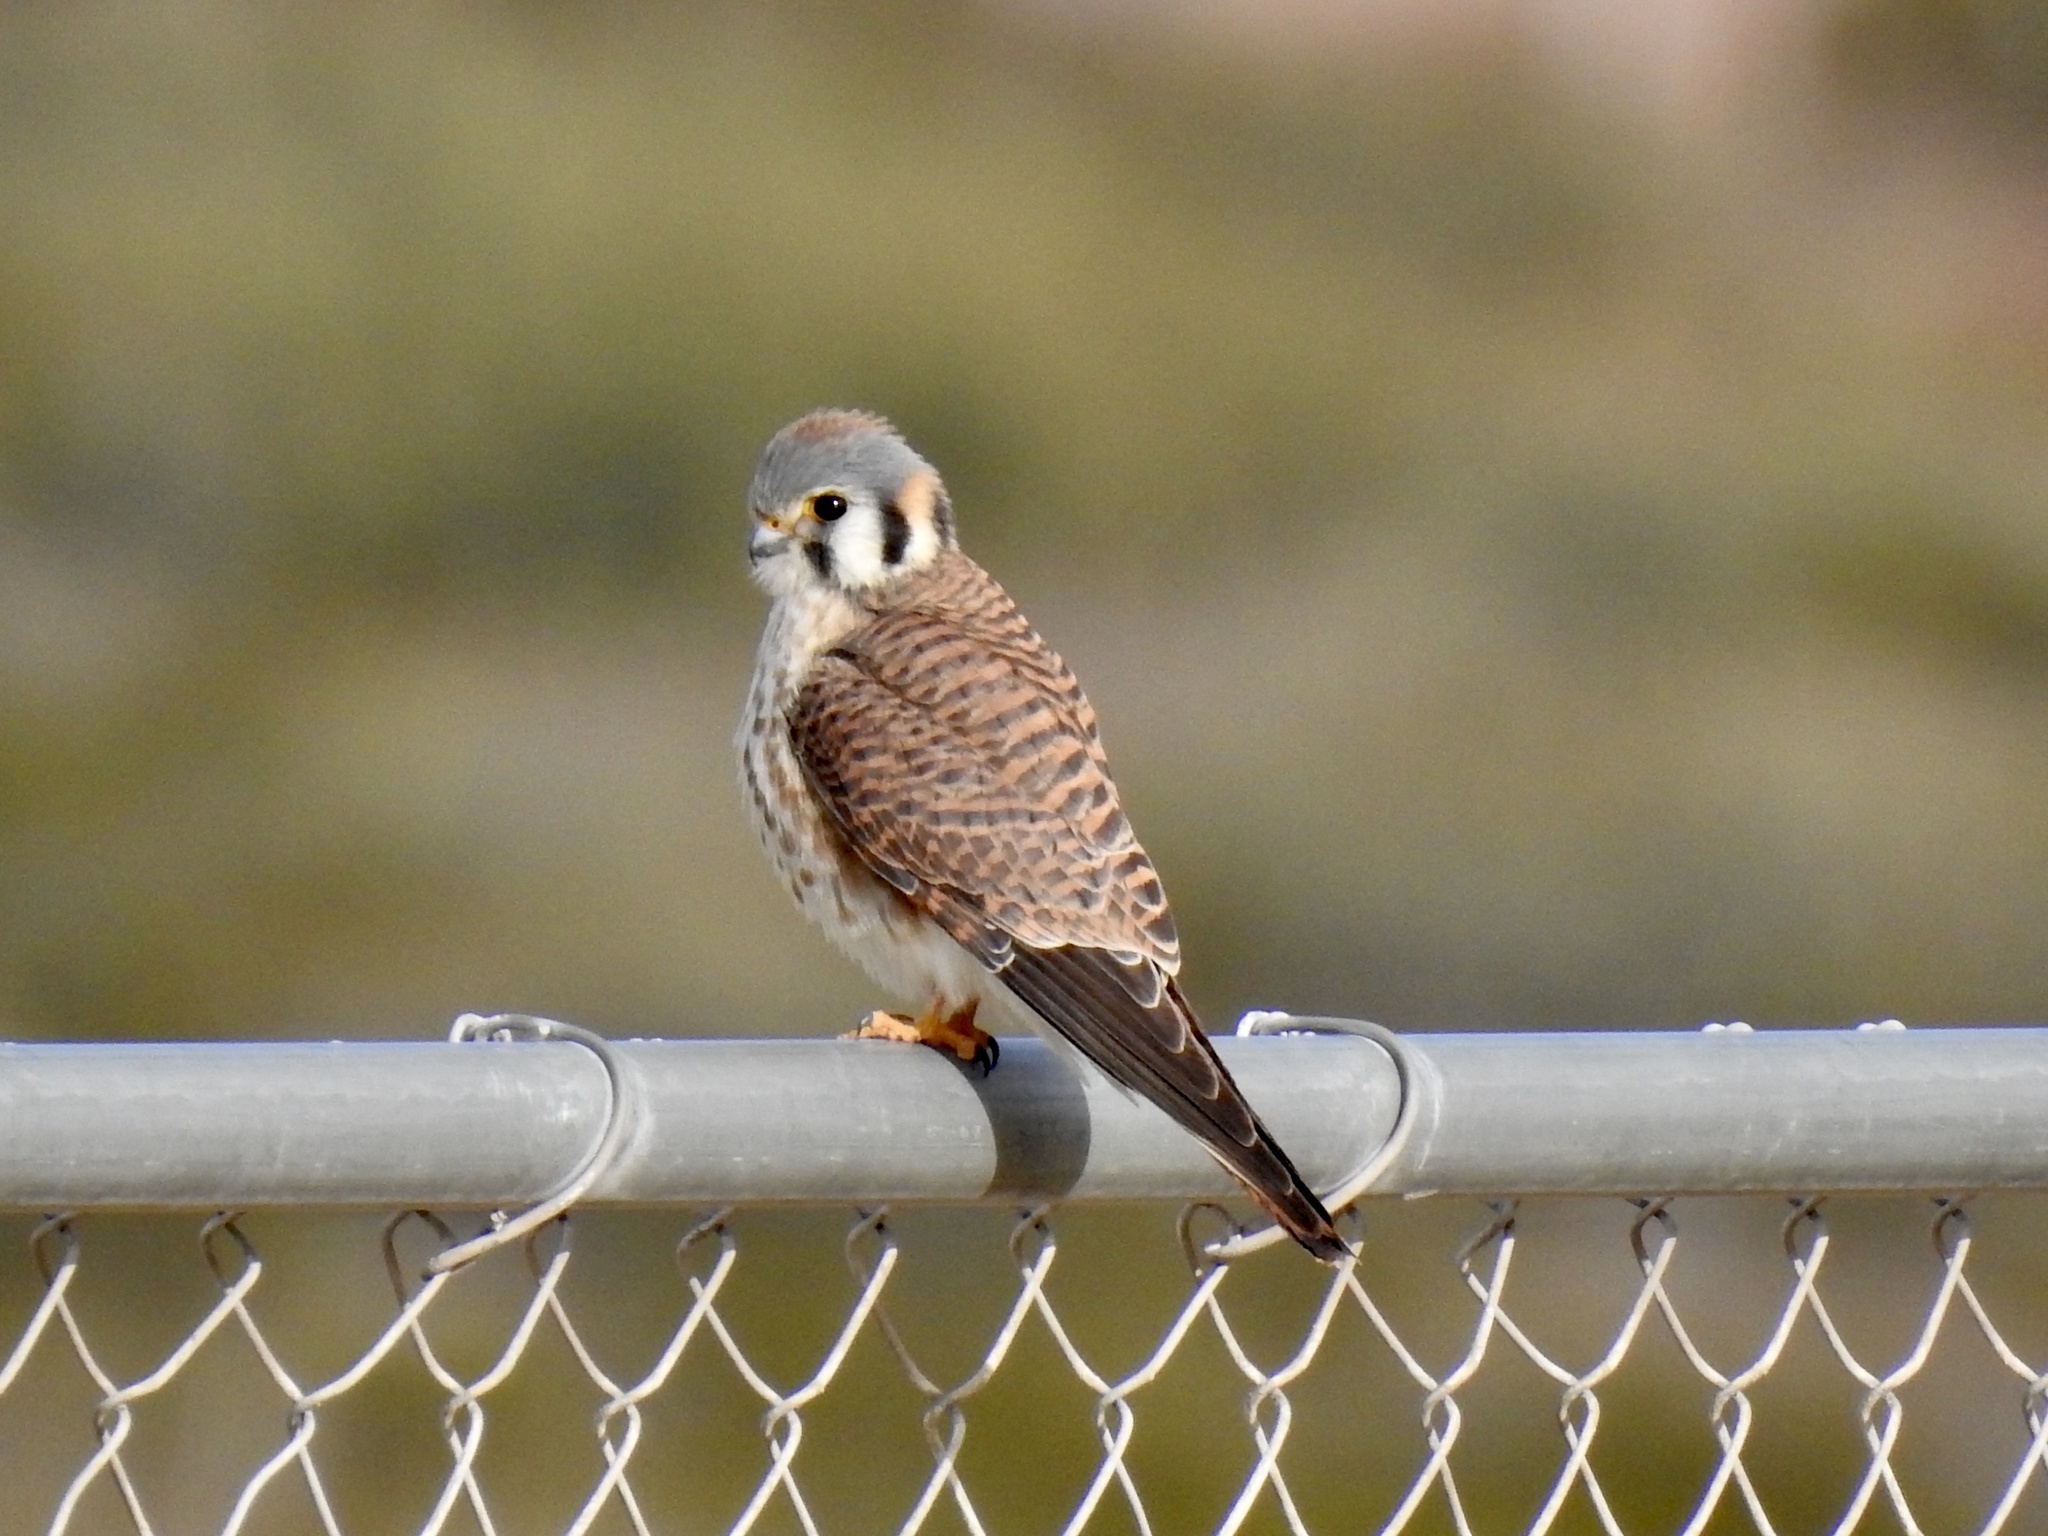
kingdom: Animalia
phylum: Chordata
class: Aves
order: Falconiformes
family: Falconidae
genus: Falco
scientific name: Falco sparverius
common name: American kestrel
